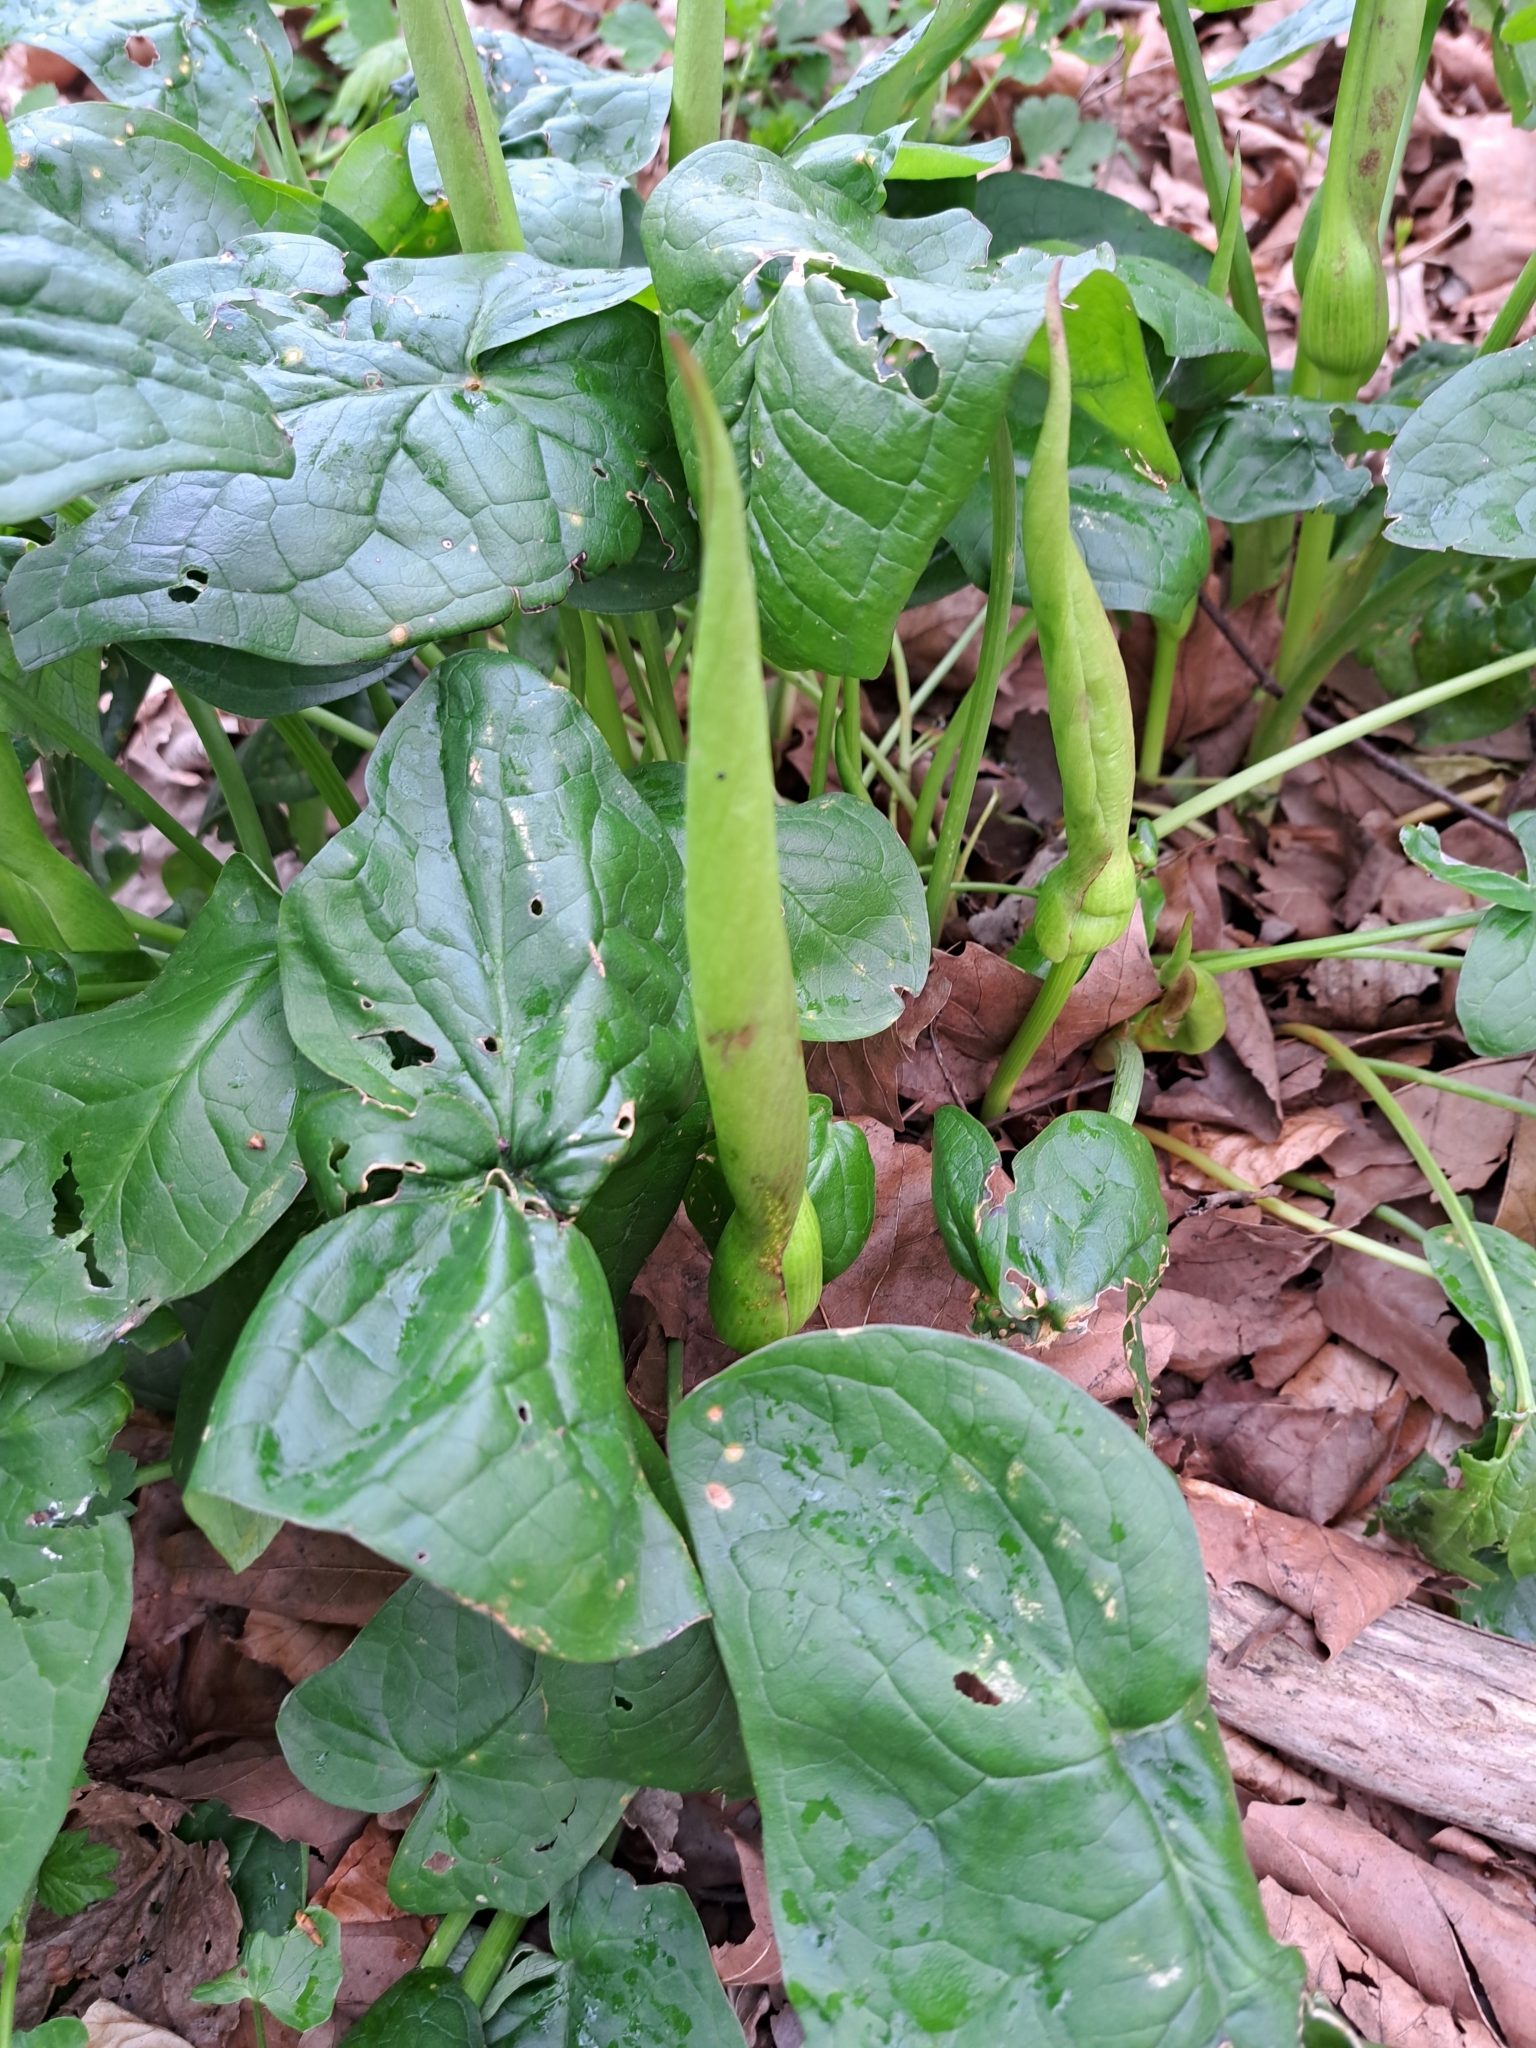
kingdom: Plantae
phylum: Tracheophyta
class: Liliopsida
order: Alismatales
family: Araceae
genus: Arum
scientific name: Arum maculatum
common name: Lords-and-ladies
